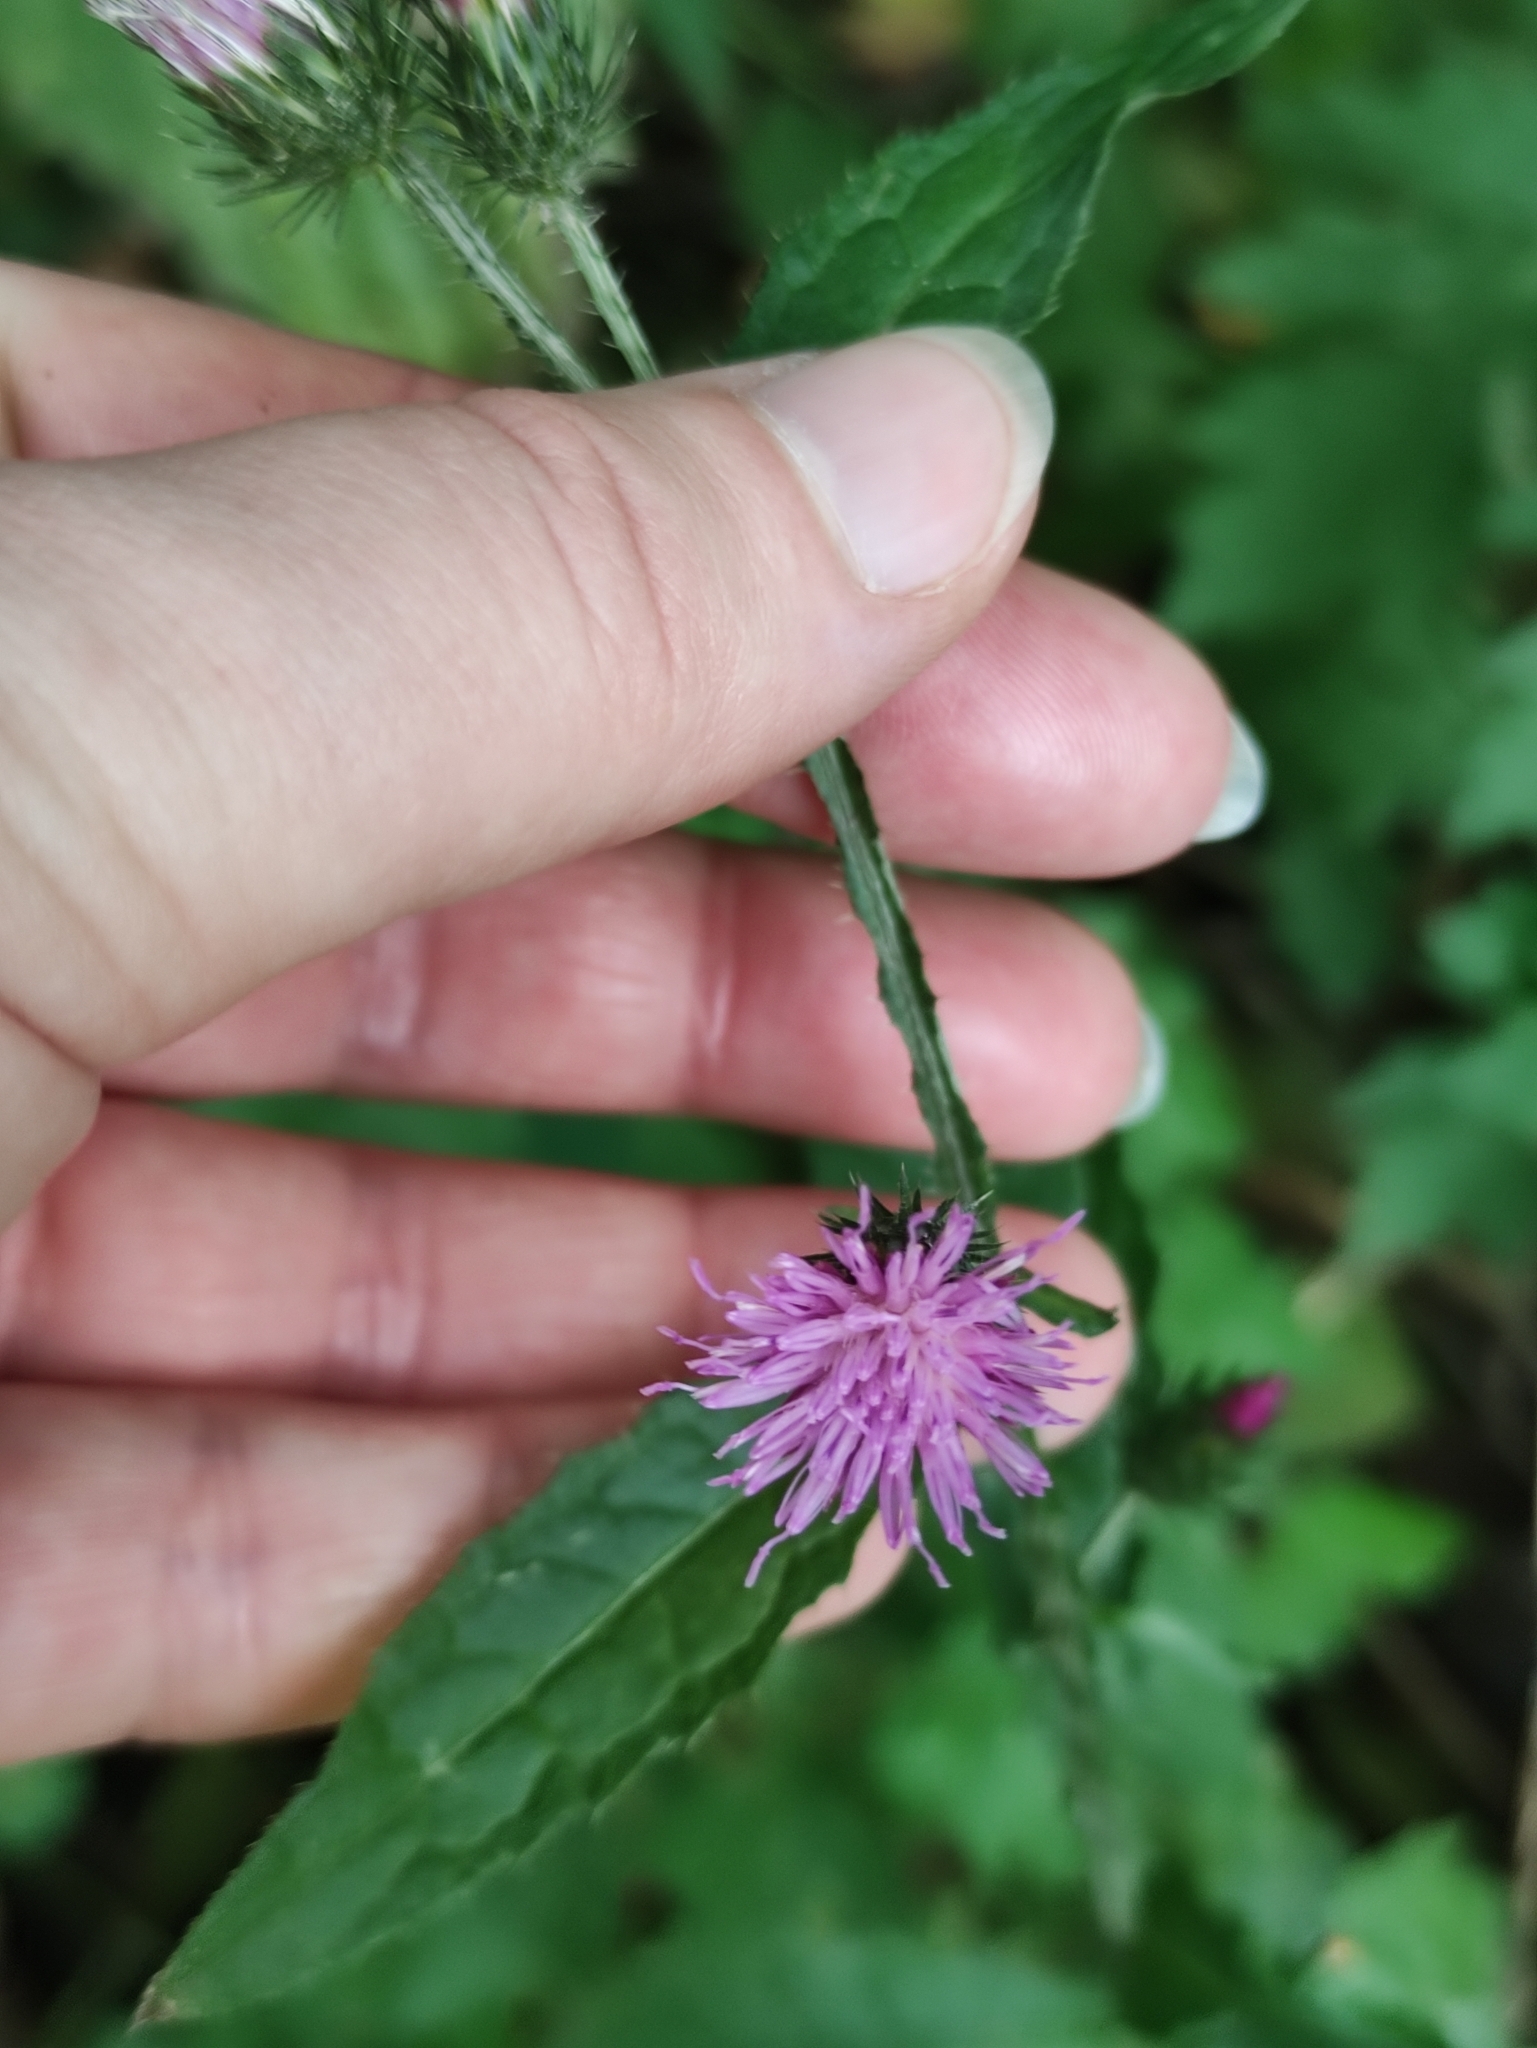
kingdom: Plantae
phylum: Tracheophyta
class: Magnoliopsida
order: Asterales
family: Asteraceae
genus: Carduus
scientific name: Carduus crispus
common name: Welted thistle
